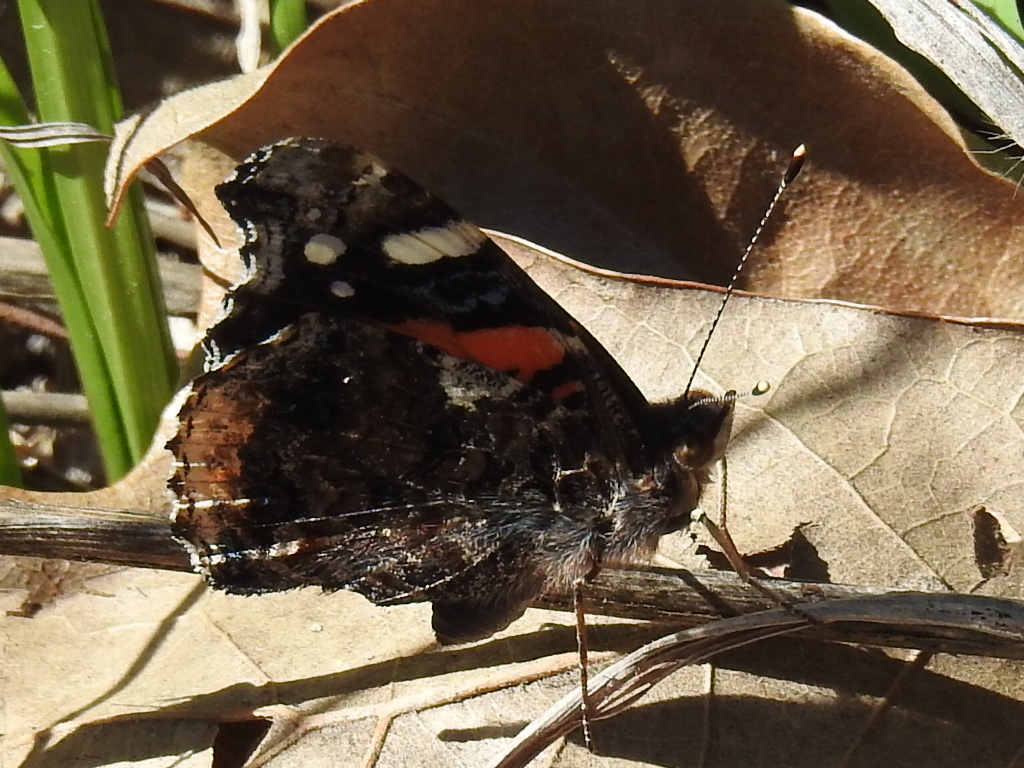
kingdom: Animalia
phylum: Arthropoda
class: Insecta
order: Lepidoptera
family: Nymphalidae
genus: Vanessa
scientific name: Vanessa atalanta
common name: Red admiral
